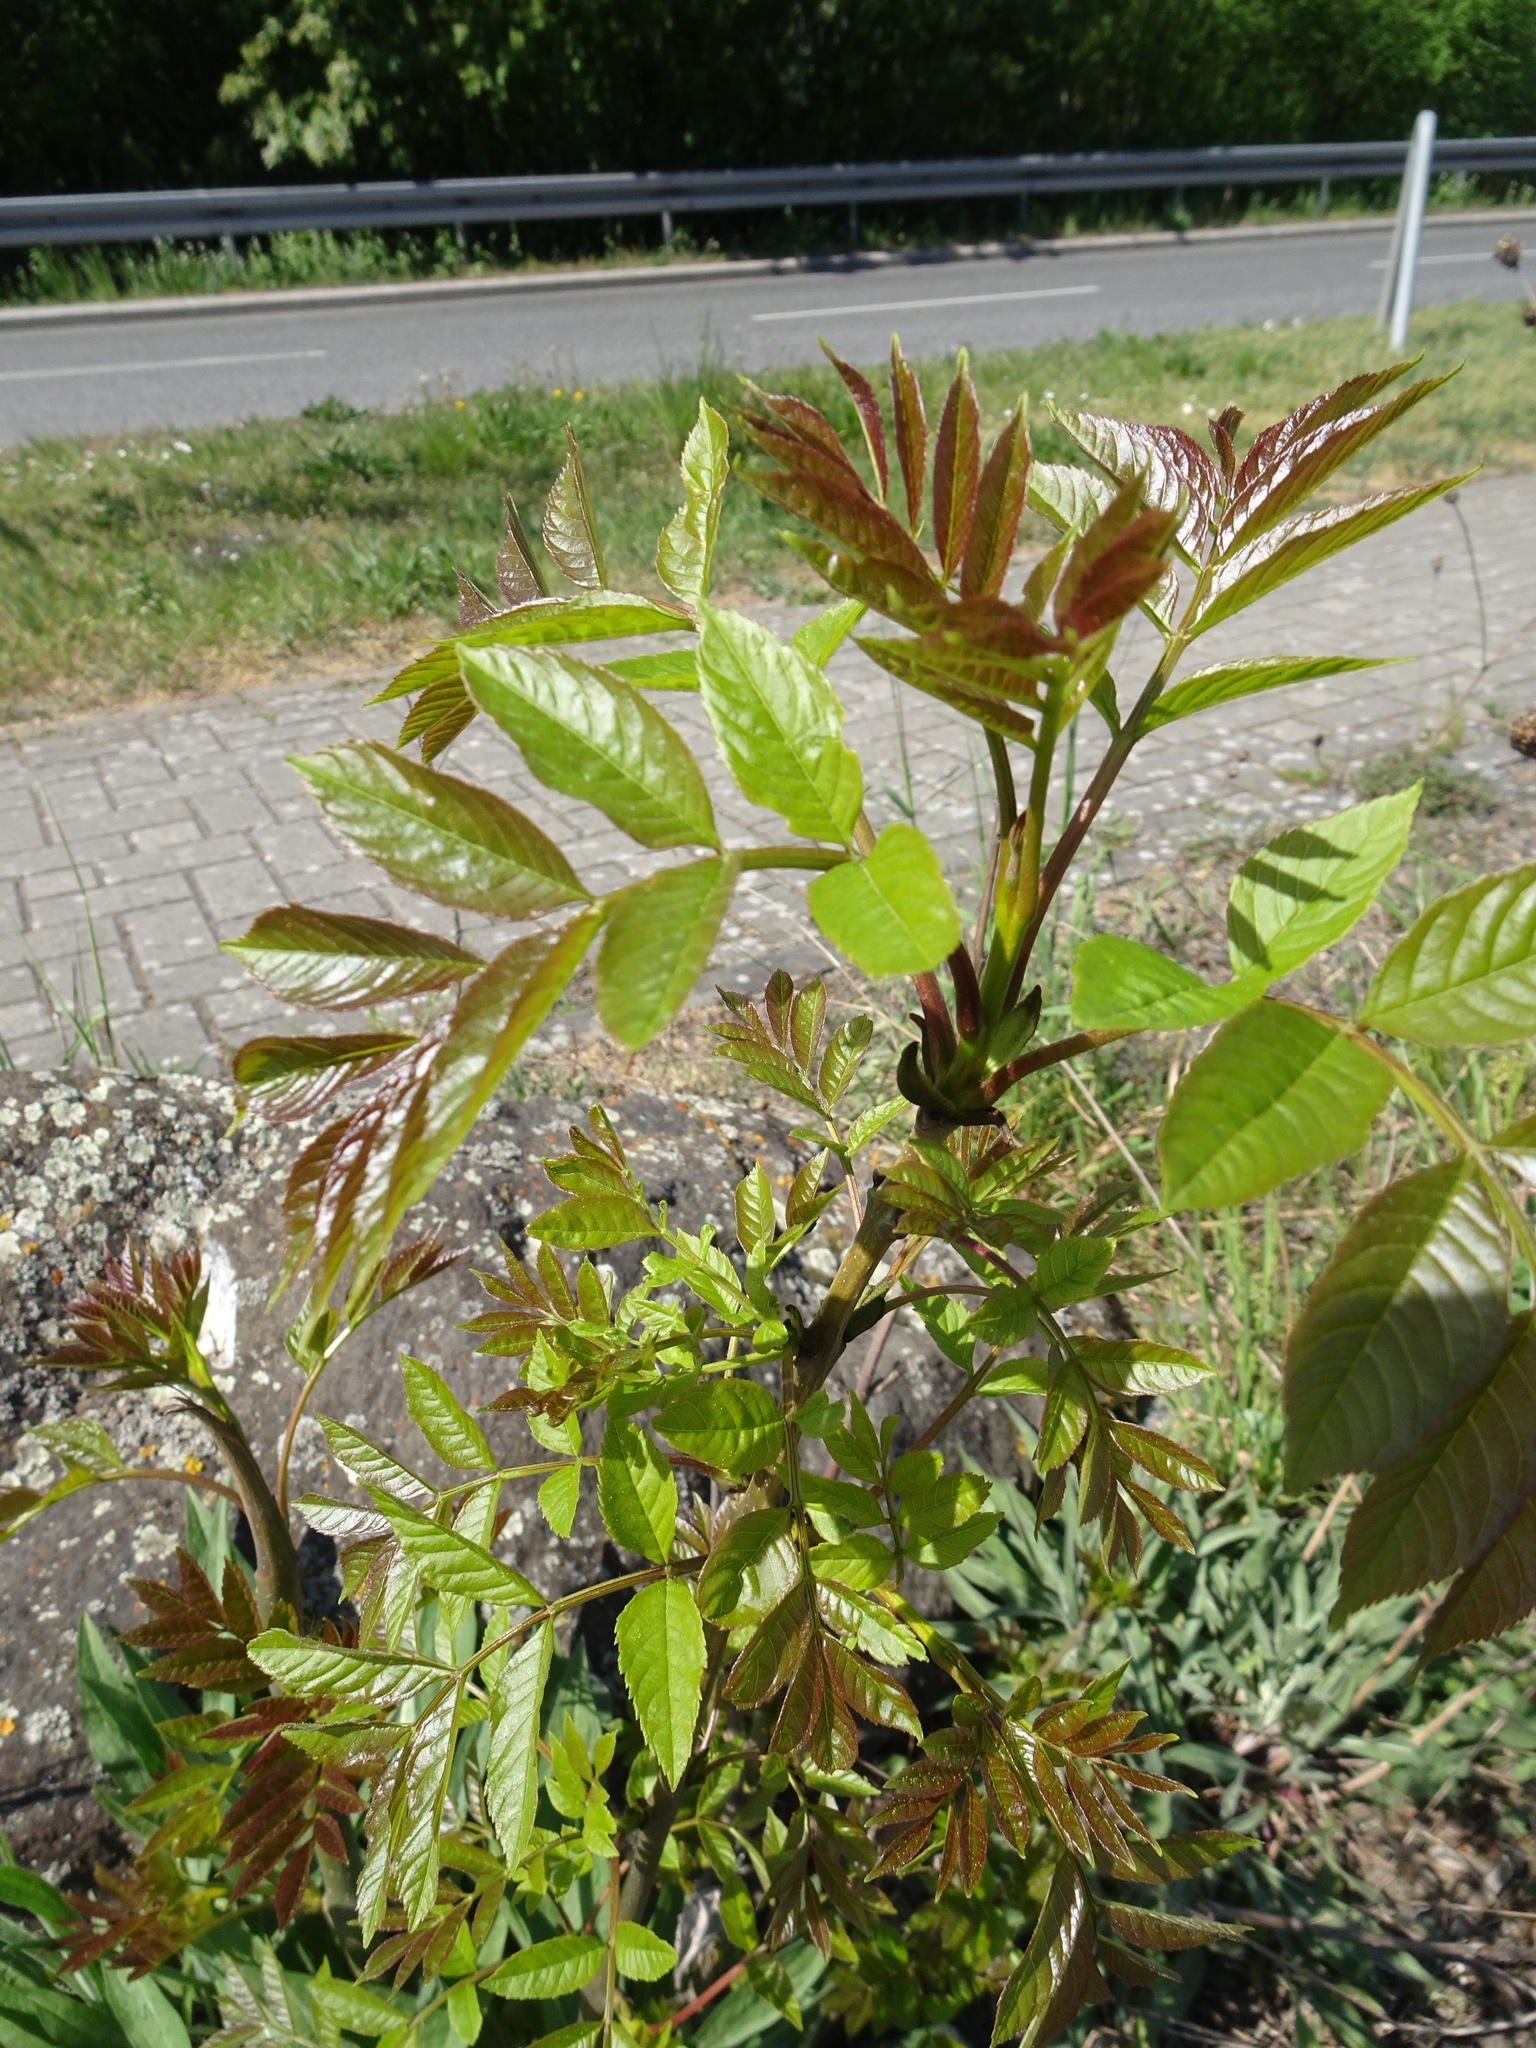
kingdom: Plantae
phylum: Tracheophyta
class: Magnoliopsida
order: Lamiales
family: Oleaceae
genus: Fraxinus
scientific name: Fraxinus excelsior
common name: European ash
